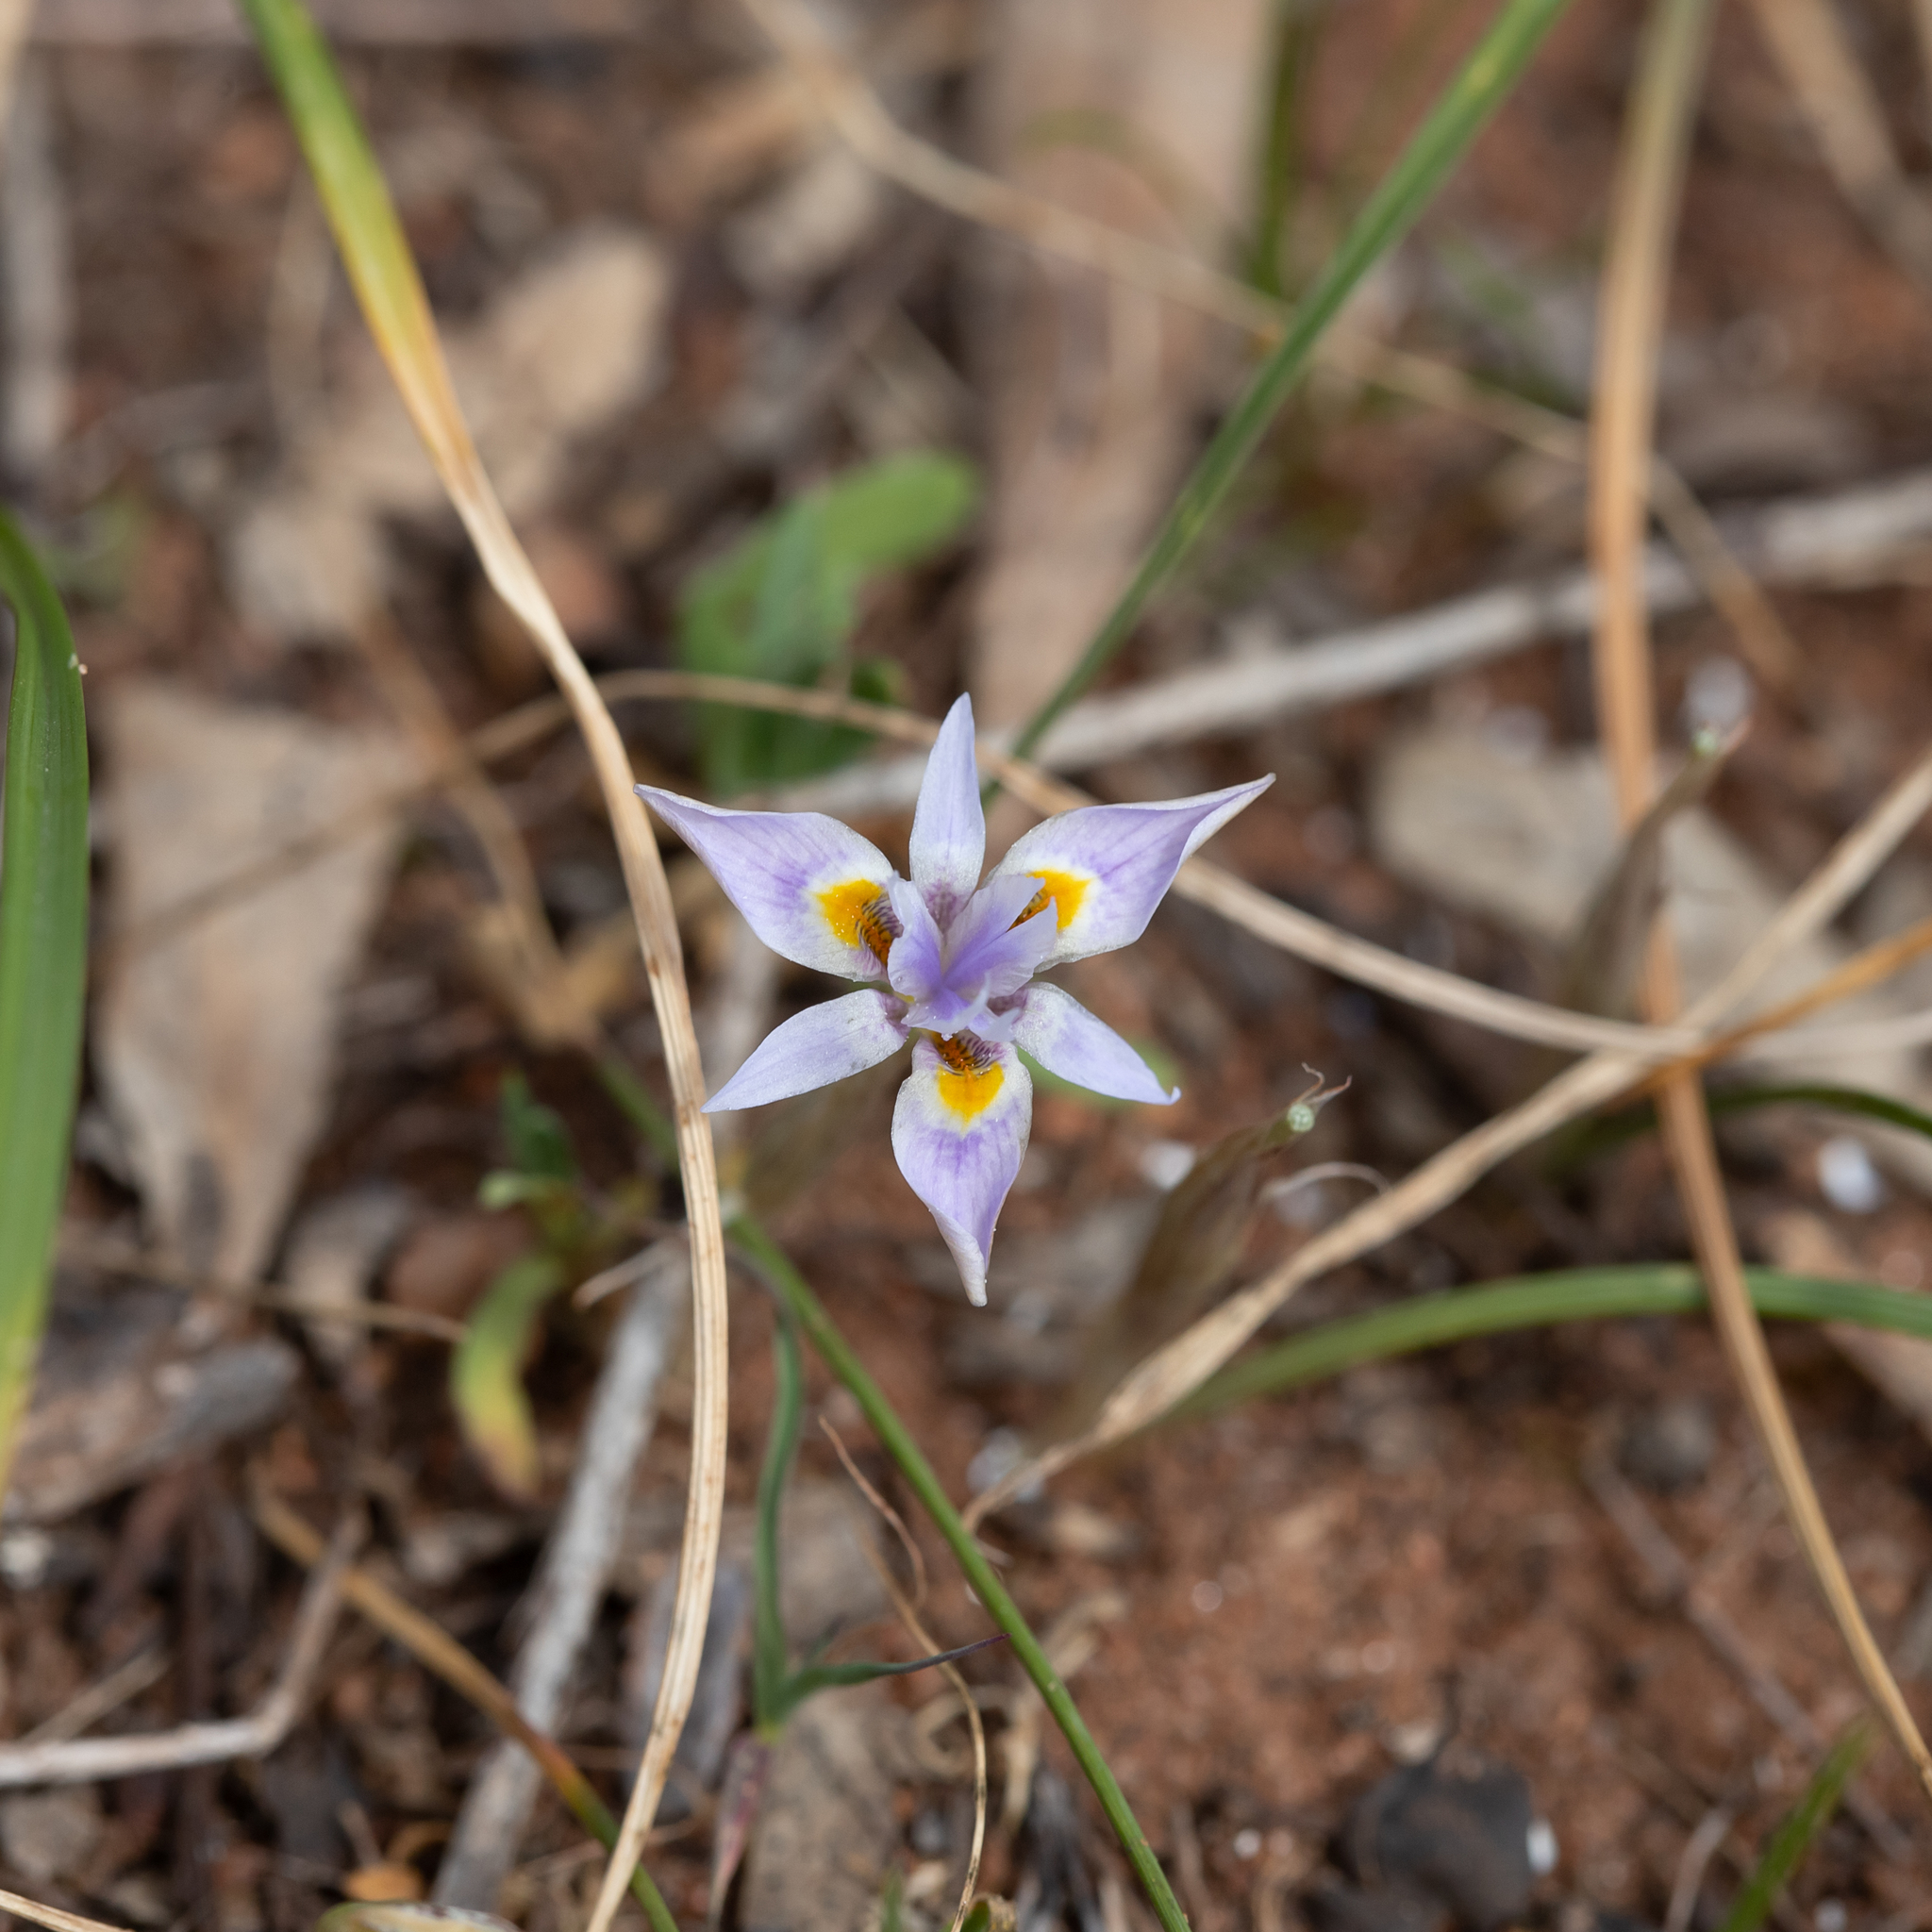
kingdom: Plantae
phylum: Tracheophyta
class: Liliopsida
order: Asparagales
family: Iridaceae
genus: Moraea
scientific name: Moraea setifolia
